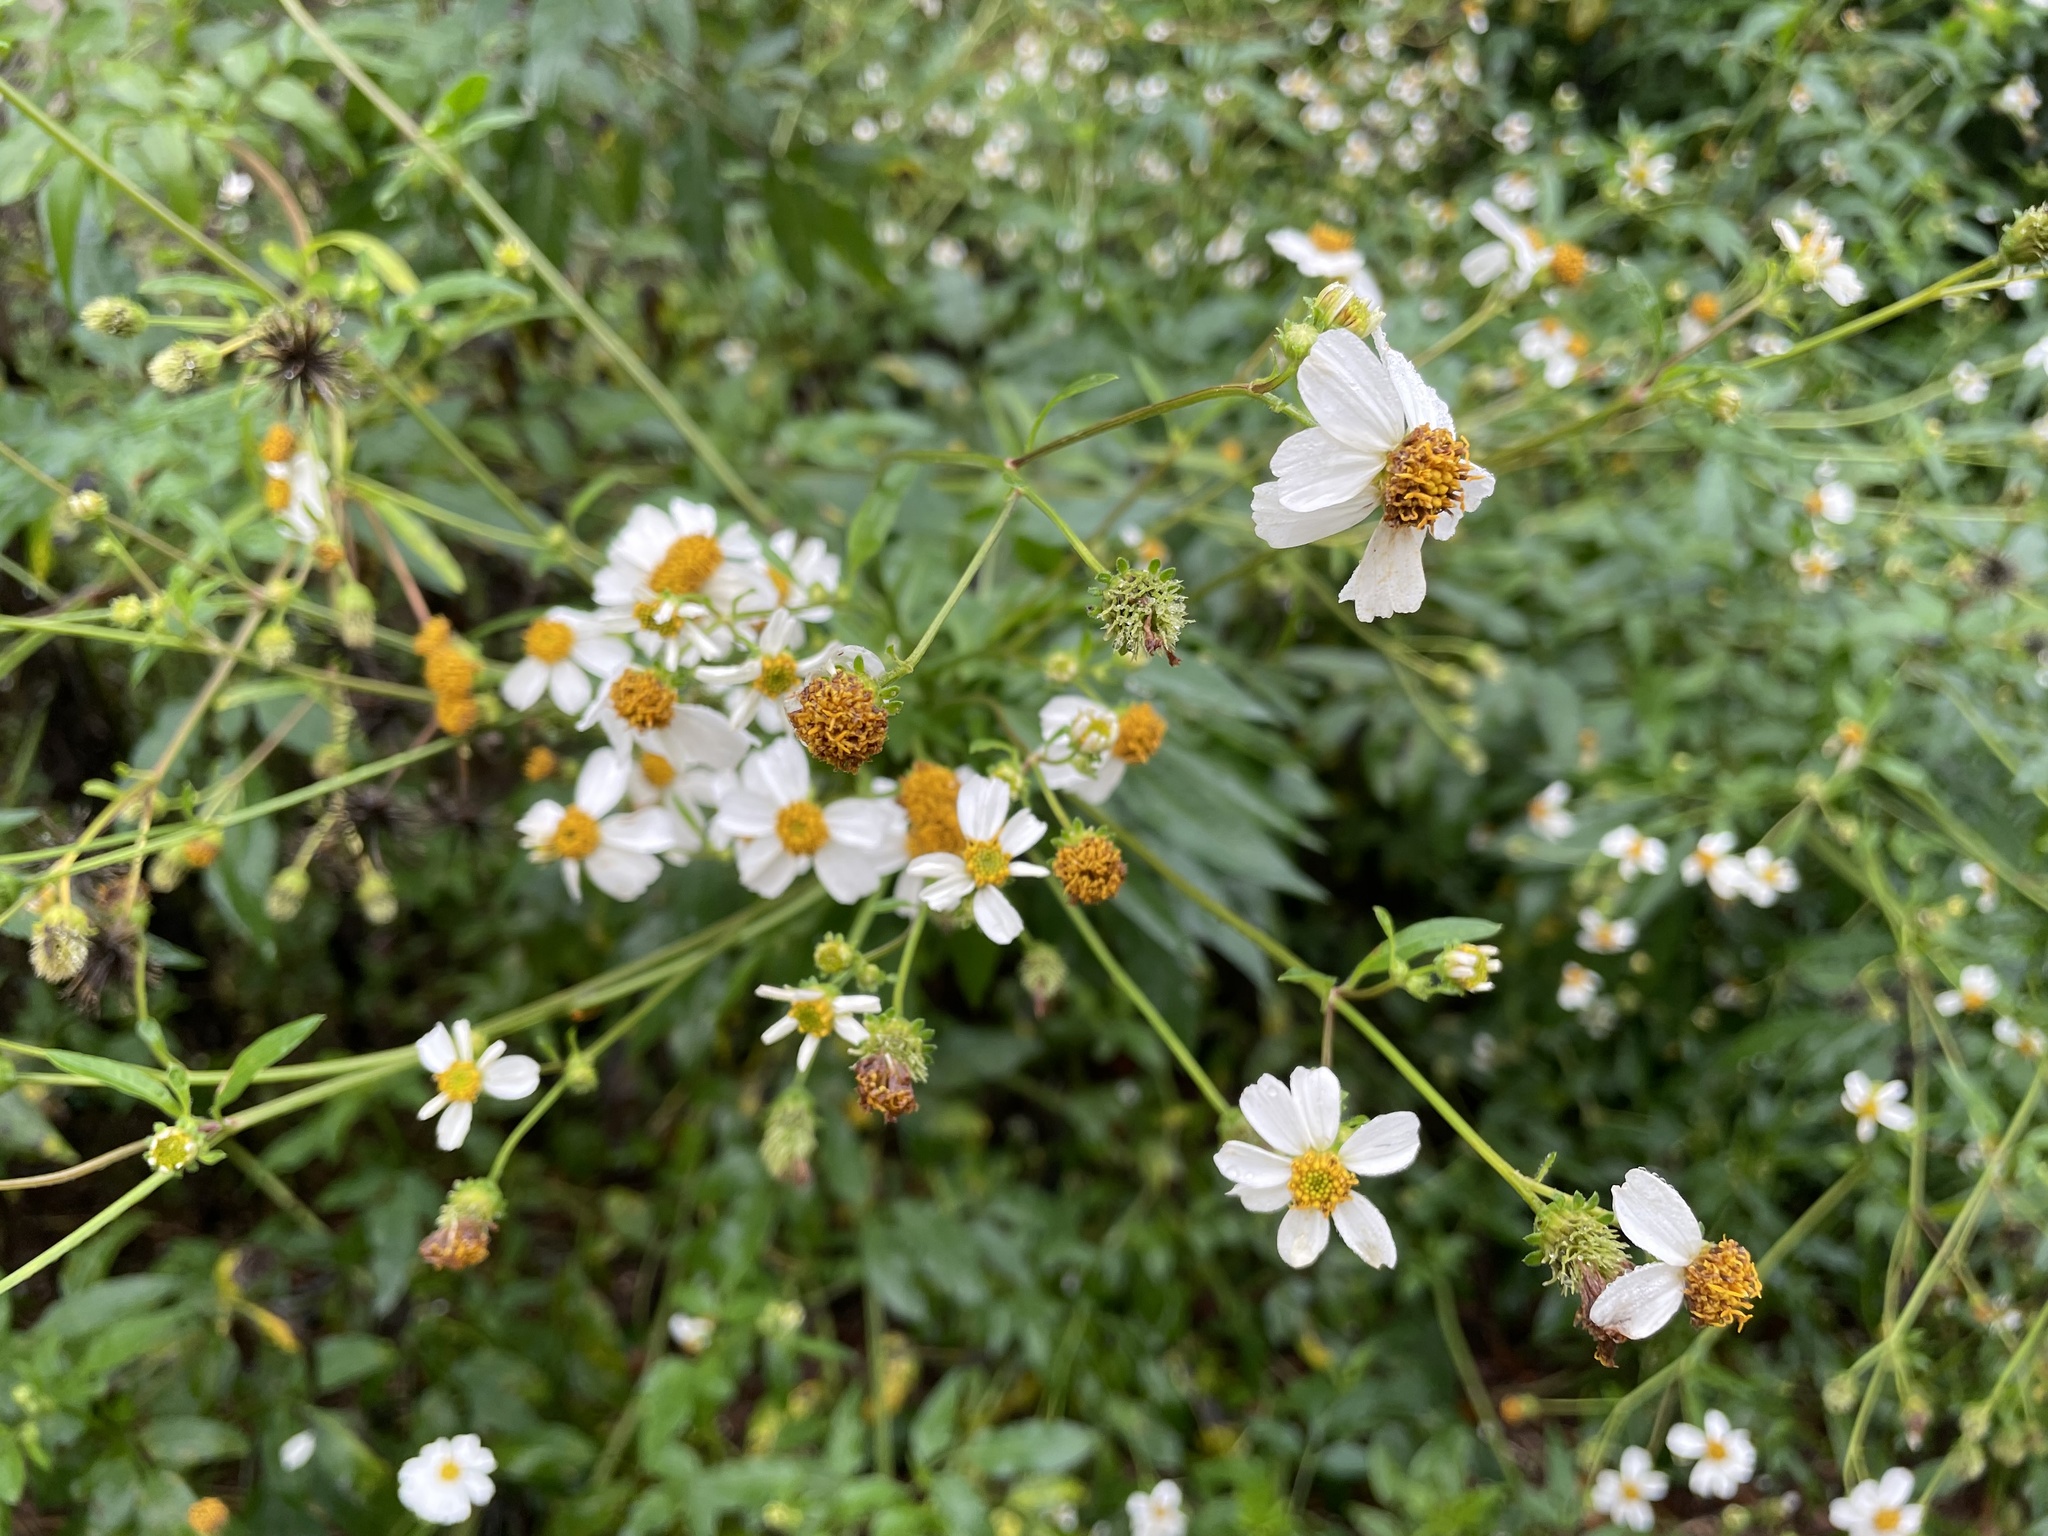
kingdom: Plantae
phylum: Tracheophyta
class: Magnoliopsida
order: Asterales
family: Asteraceae
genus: Bidens
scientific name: Bidens alba
